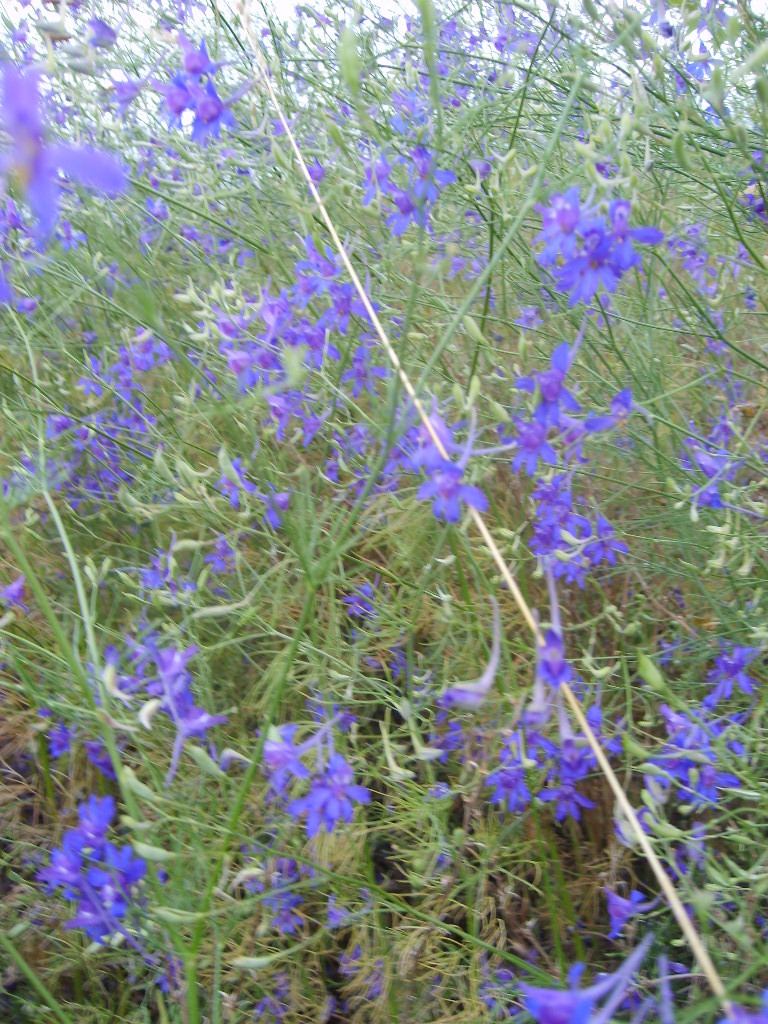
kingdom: Plantae
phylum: Tracheophyta
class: Magnoliopsida
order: Ranunculales
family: Ranunculaceae
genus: Delphinium
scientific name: Delphinium consolida
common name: Branching larkspur
